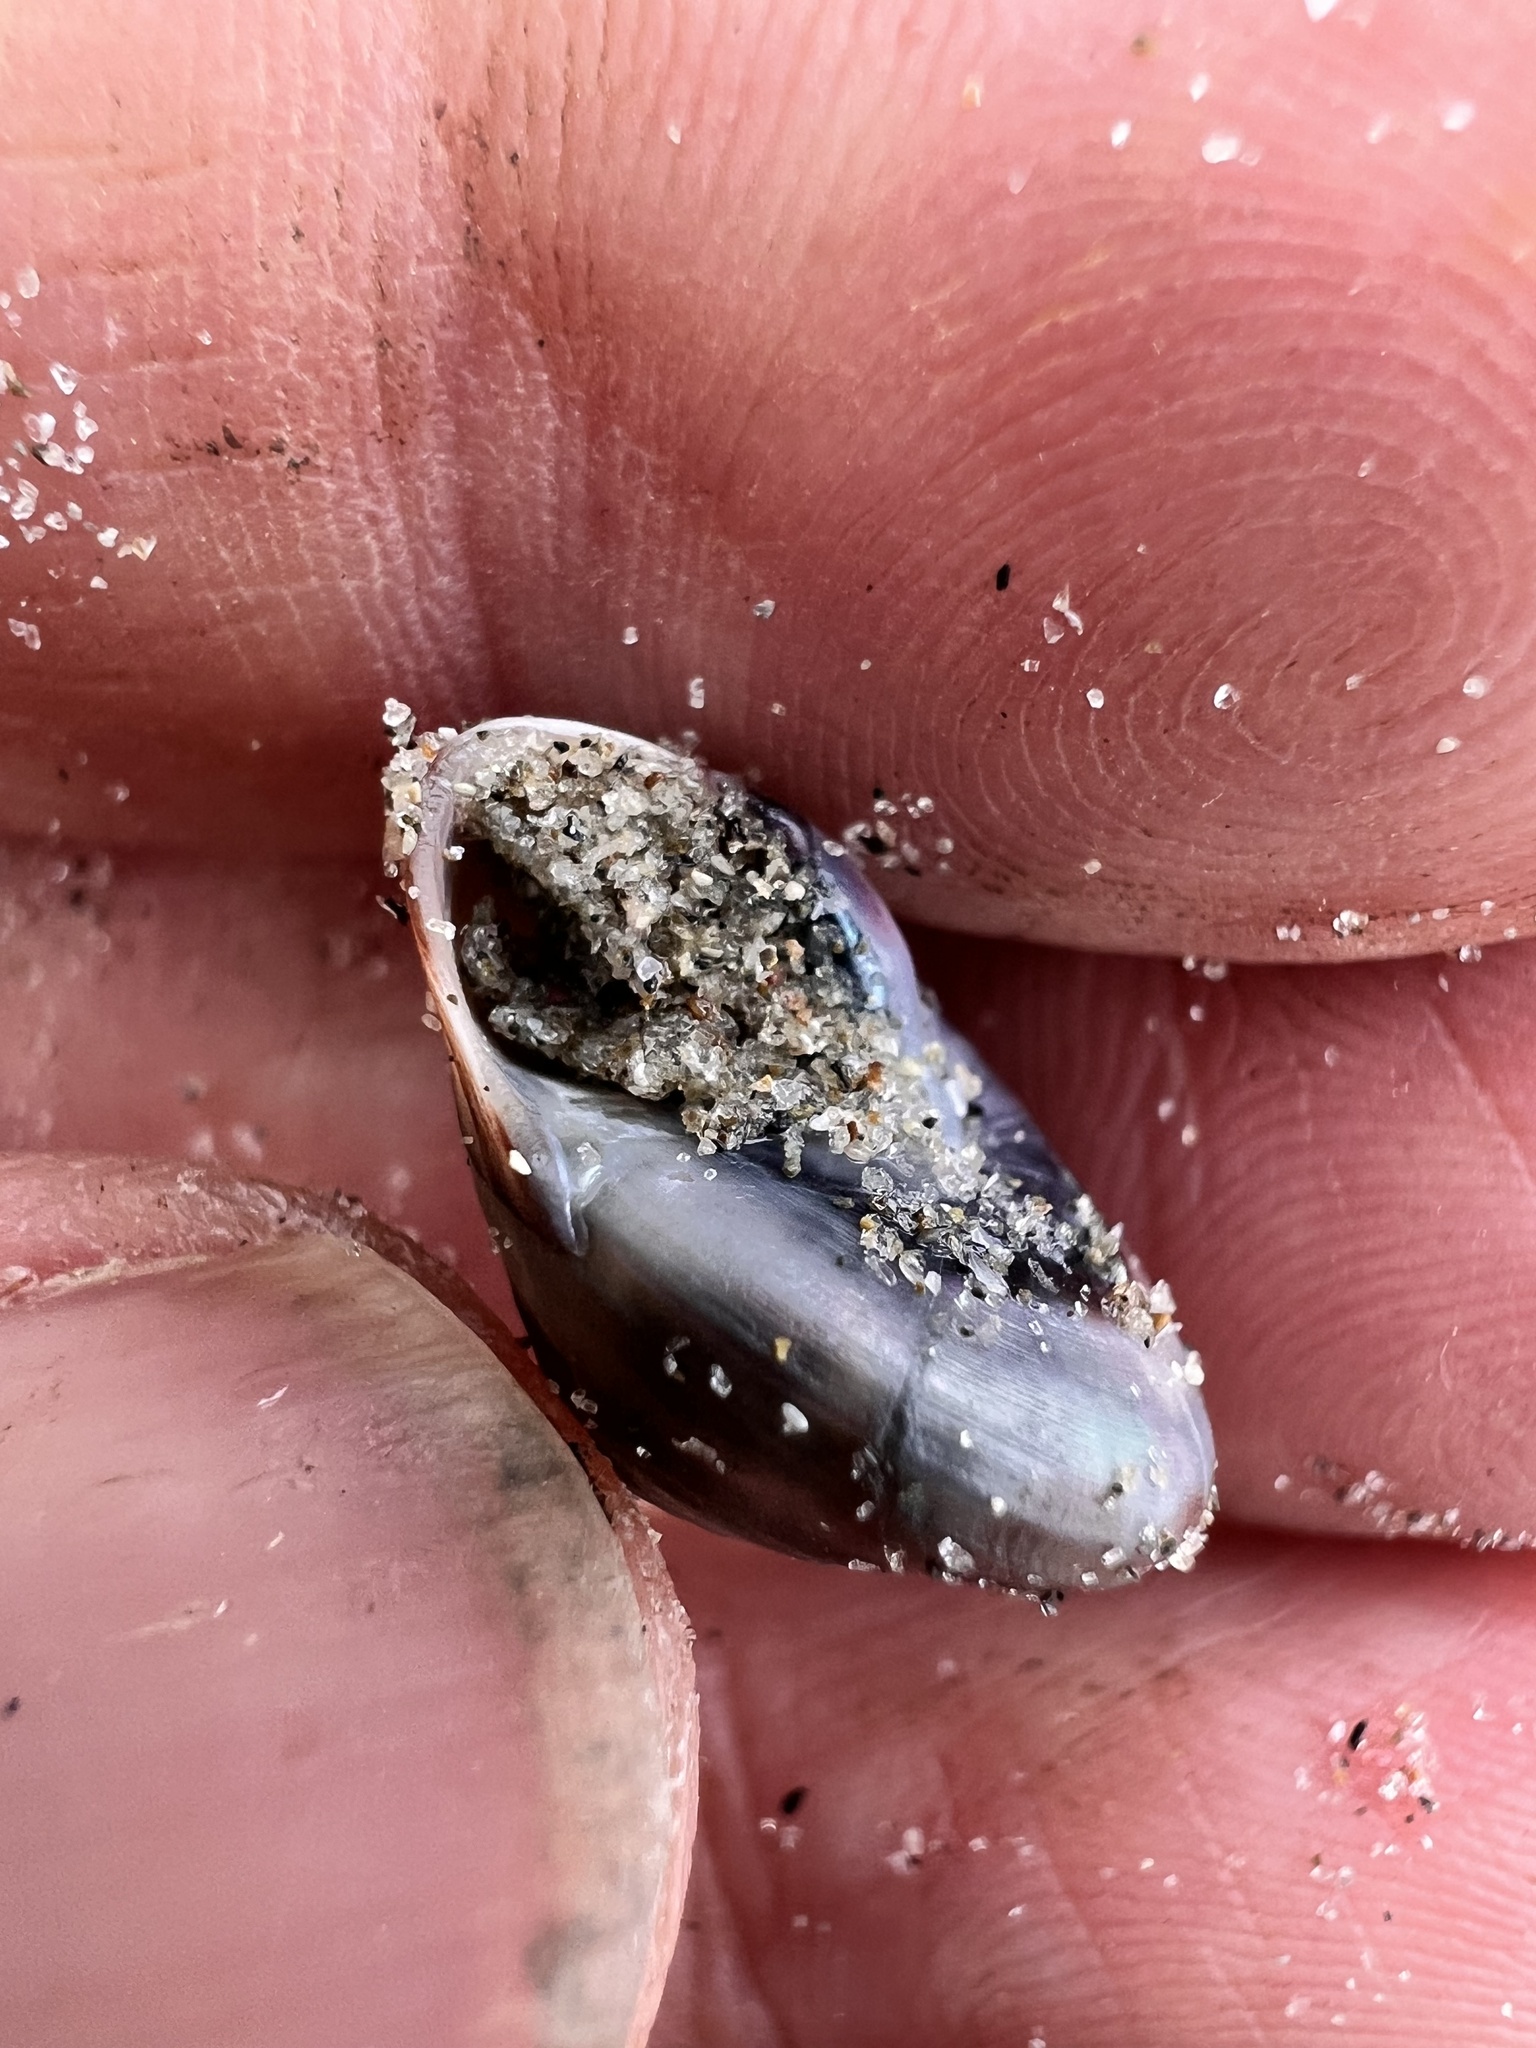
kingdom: Animalia
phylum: Mollusca
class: Gastropoda
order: Trochida
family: Trochidae
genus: Zethalia
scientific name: Zethalia zelandica
